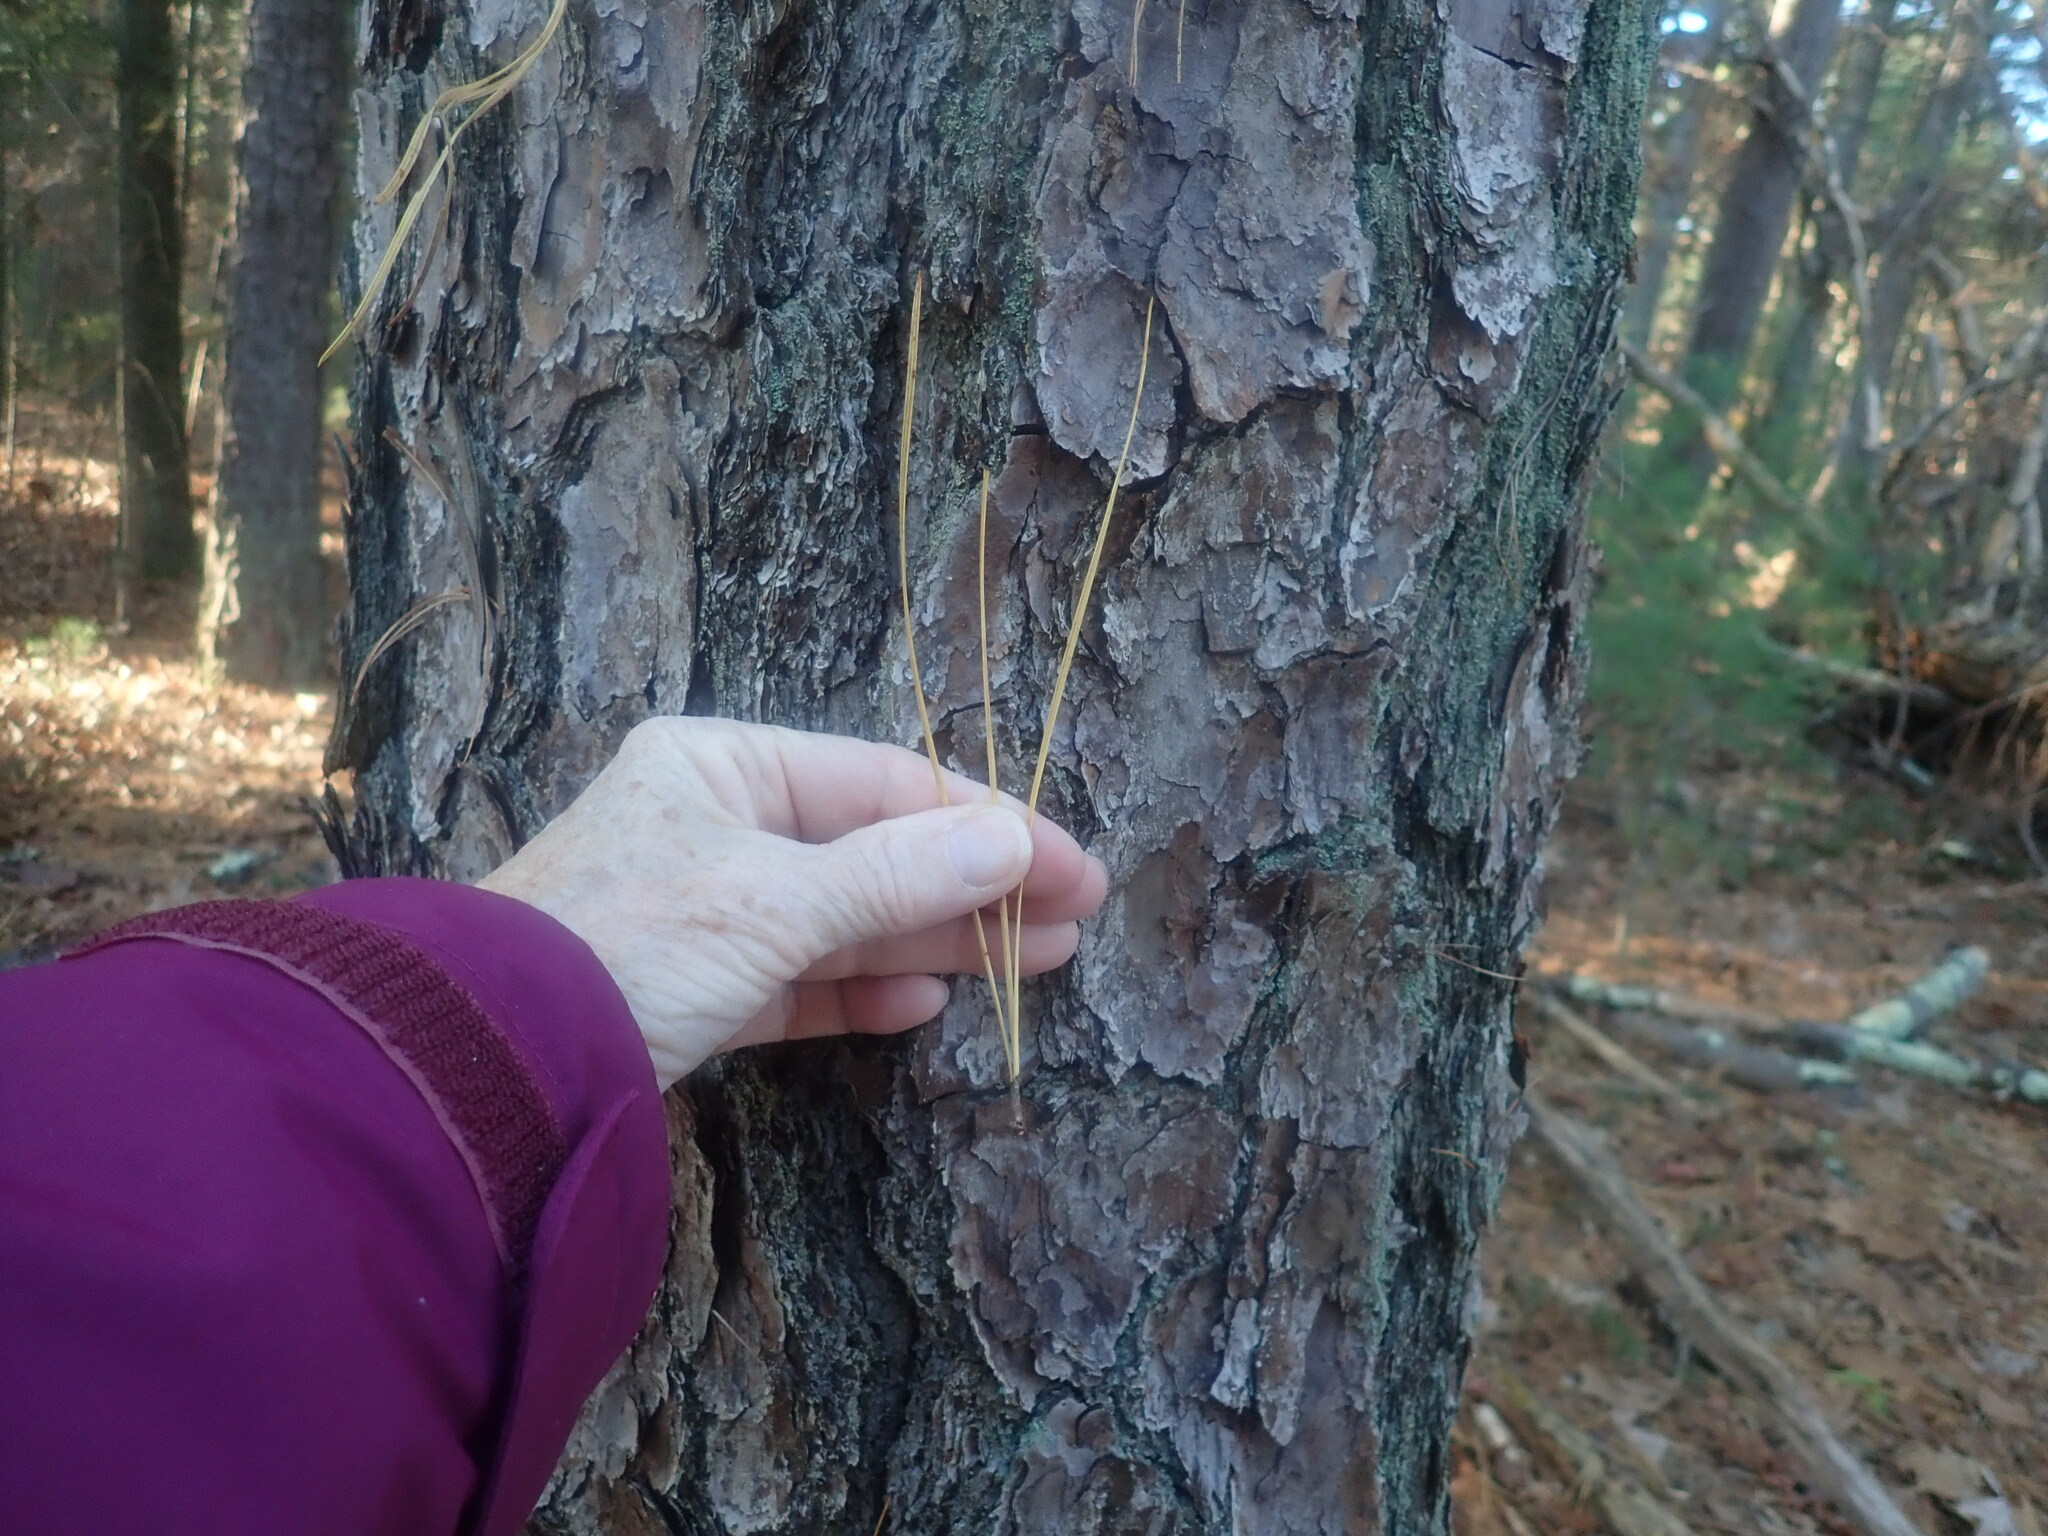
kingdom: Plantae
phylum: Tracheophyta
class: Pinopsida
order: Pinales
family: Pinaceae
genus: Pinus
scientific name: Pinus rigida
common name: Pitch pine
